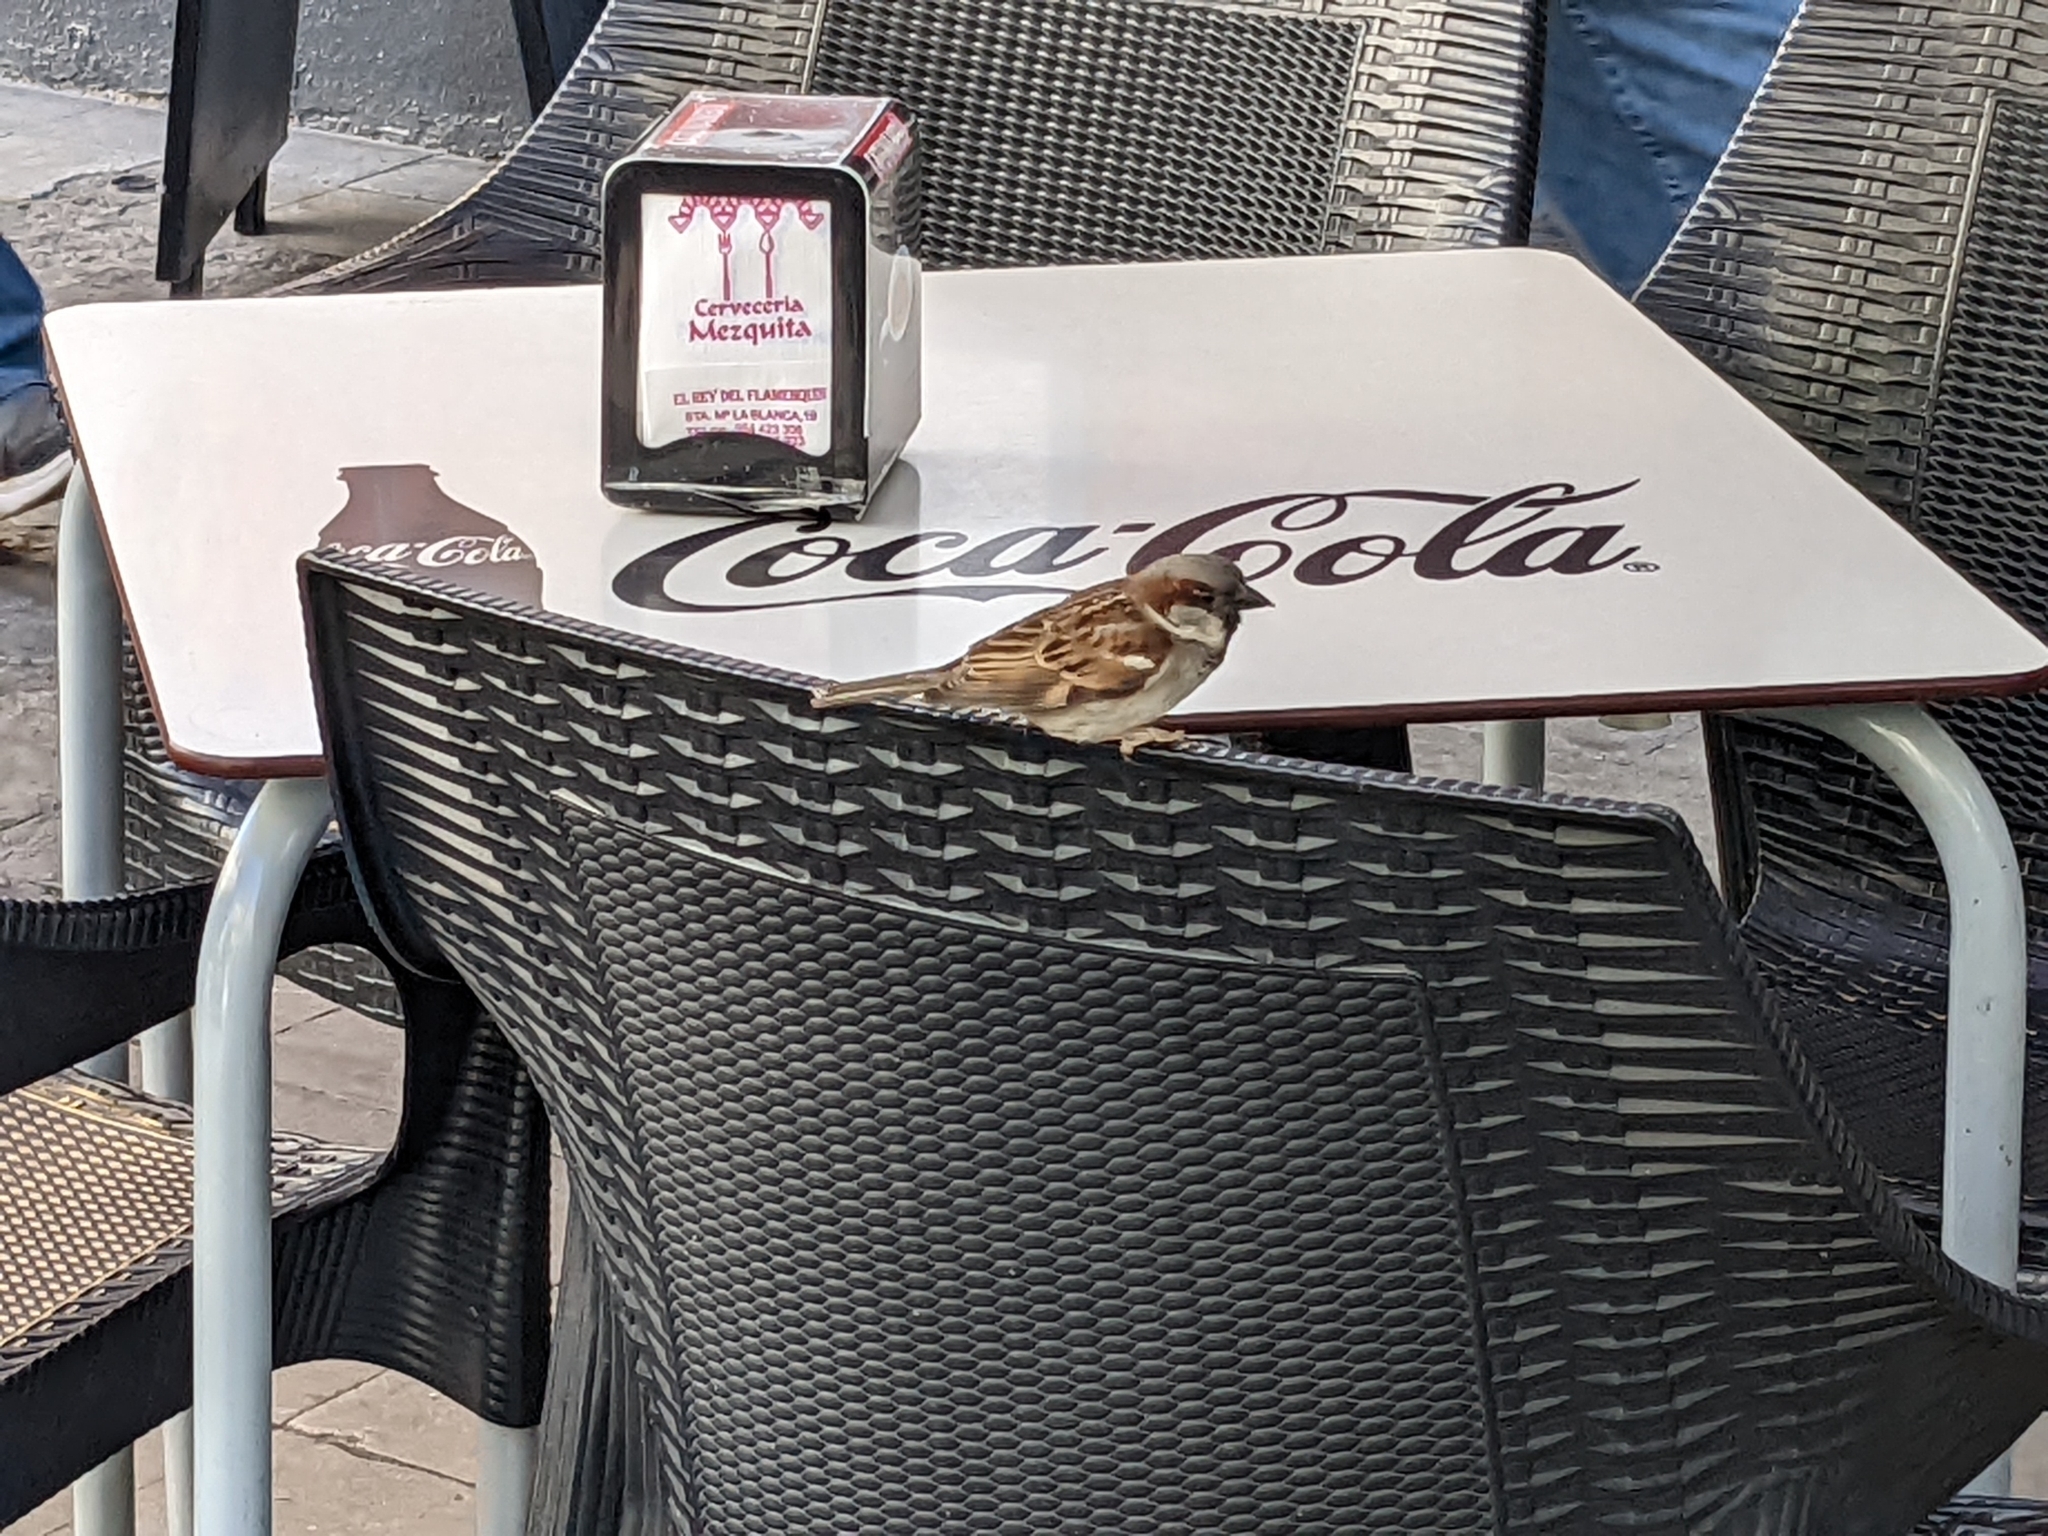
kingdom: Animalia
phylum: Chordata
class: Aves
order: Passeriformes
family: Passeridae
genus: Passer
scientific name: Passer domesticus
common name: House sparrow
